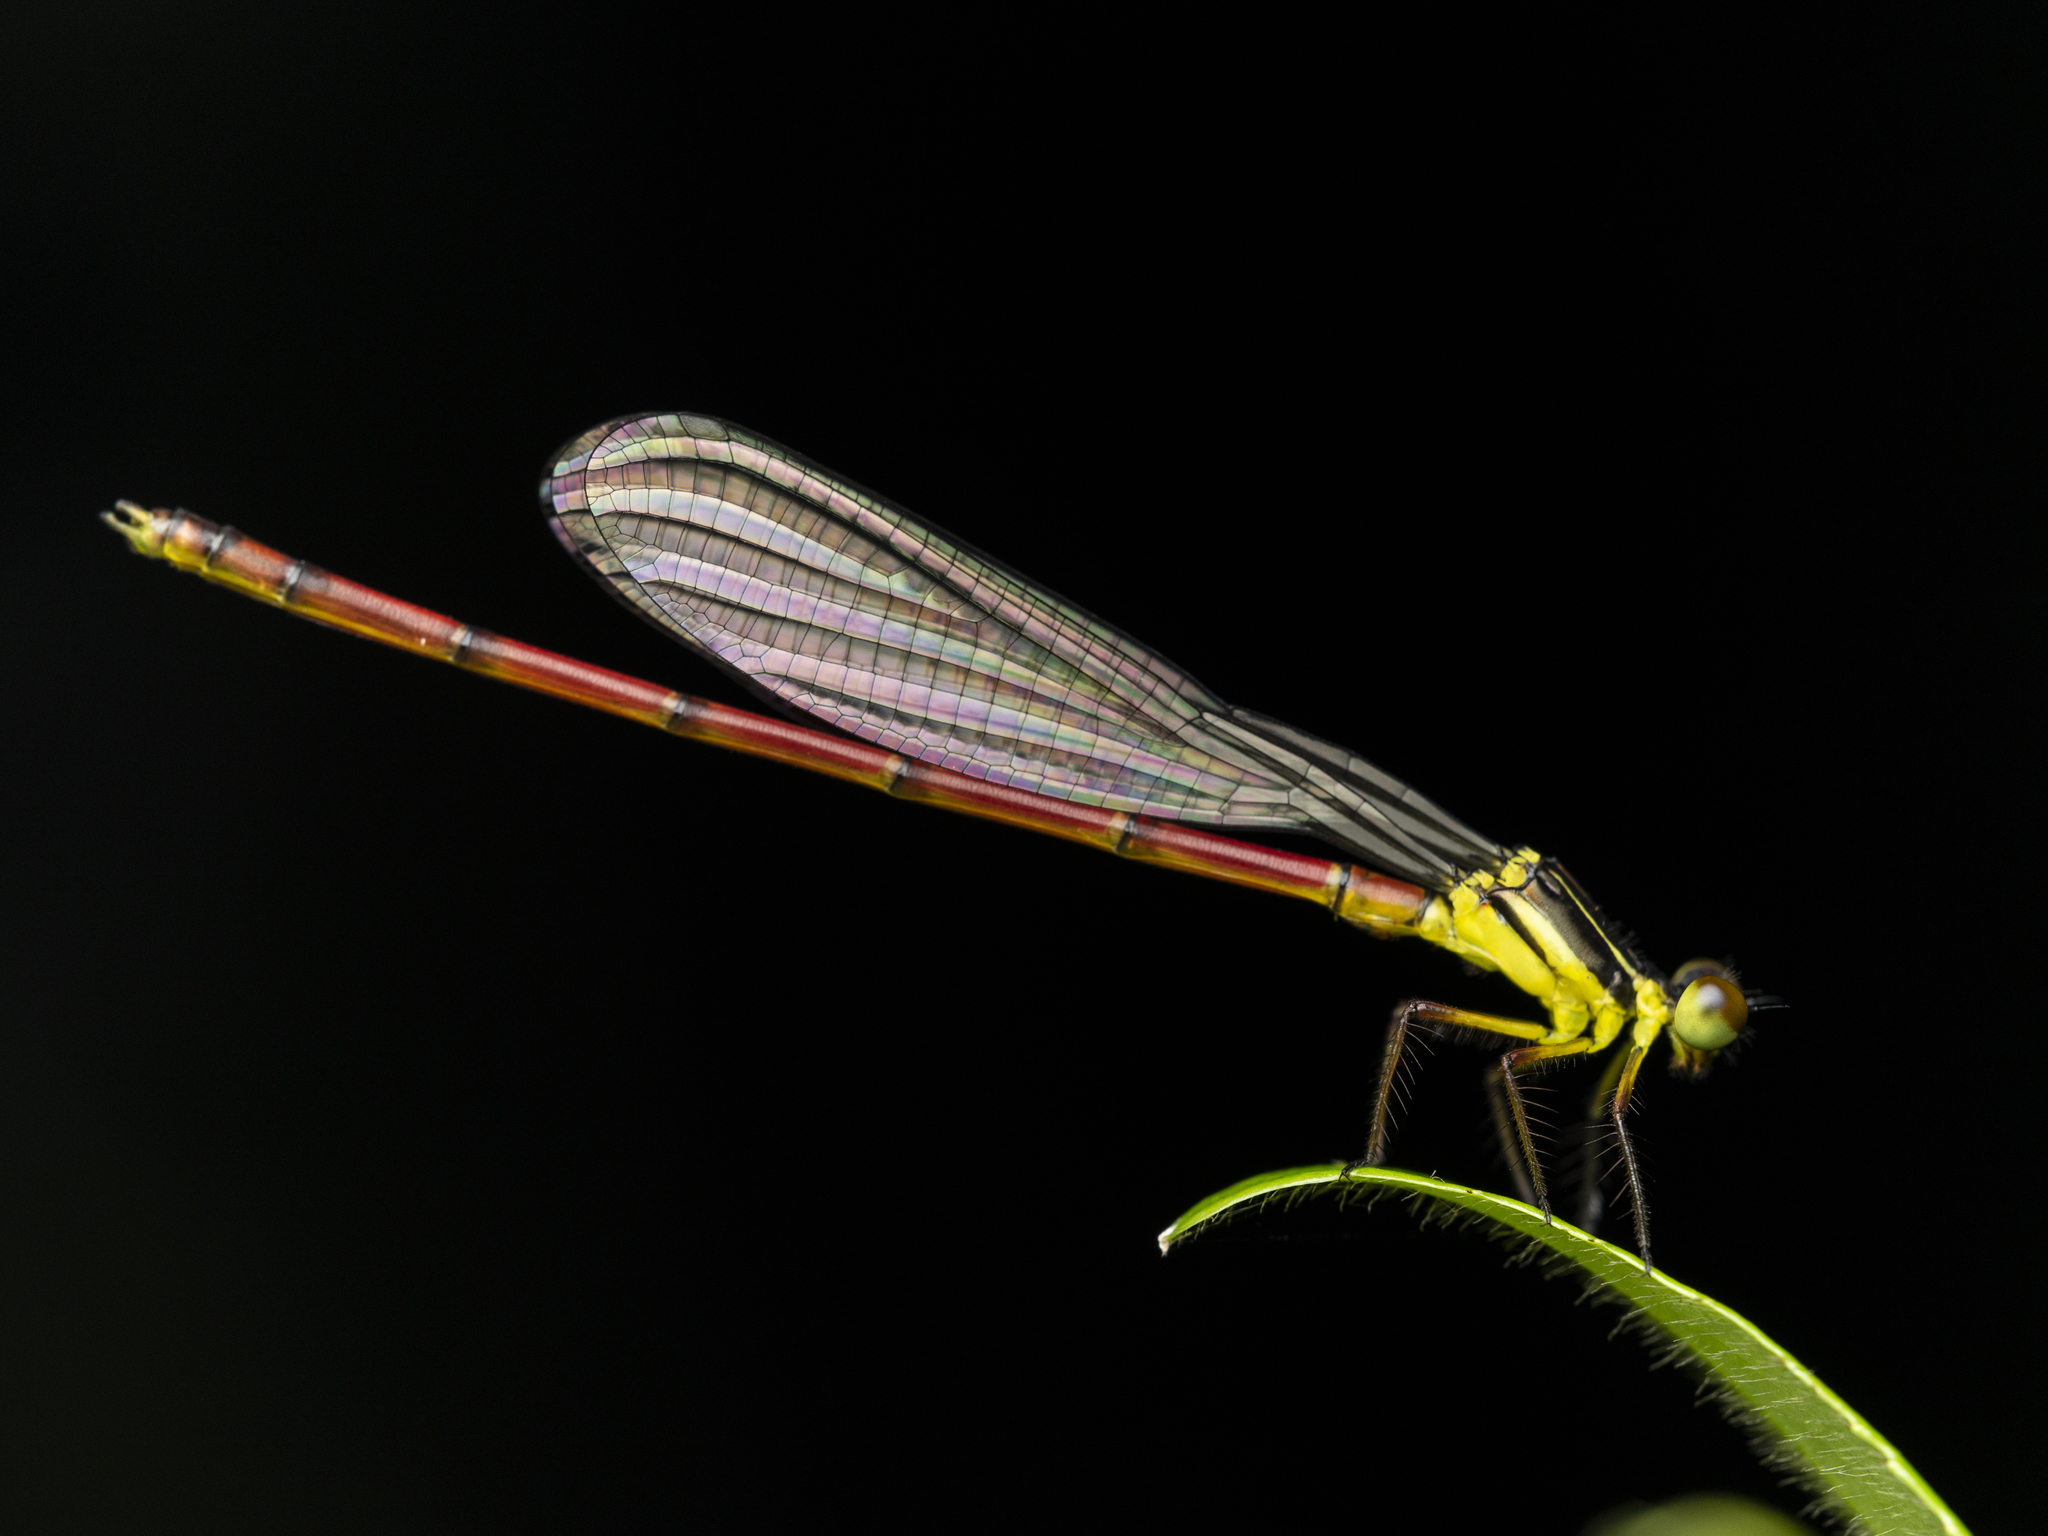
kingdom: Animalia
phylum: Arthropoda
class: Insecta
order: Odonata
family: Platycnemididae
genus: Calicnemia
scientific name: Calicnemia sinensis
